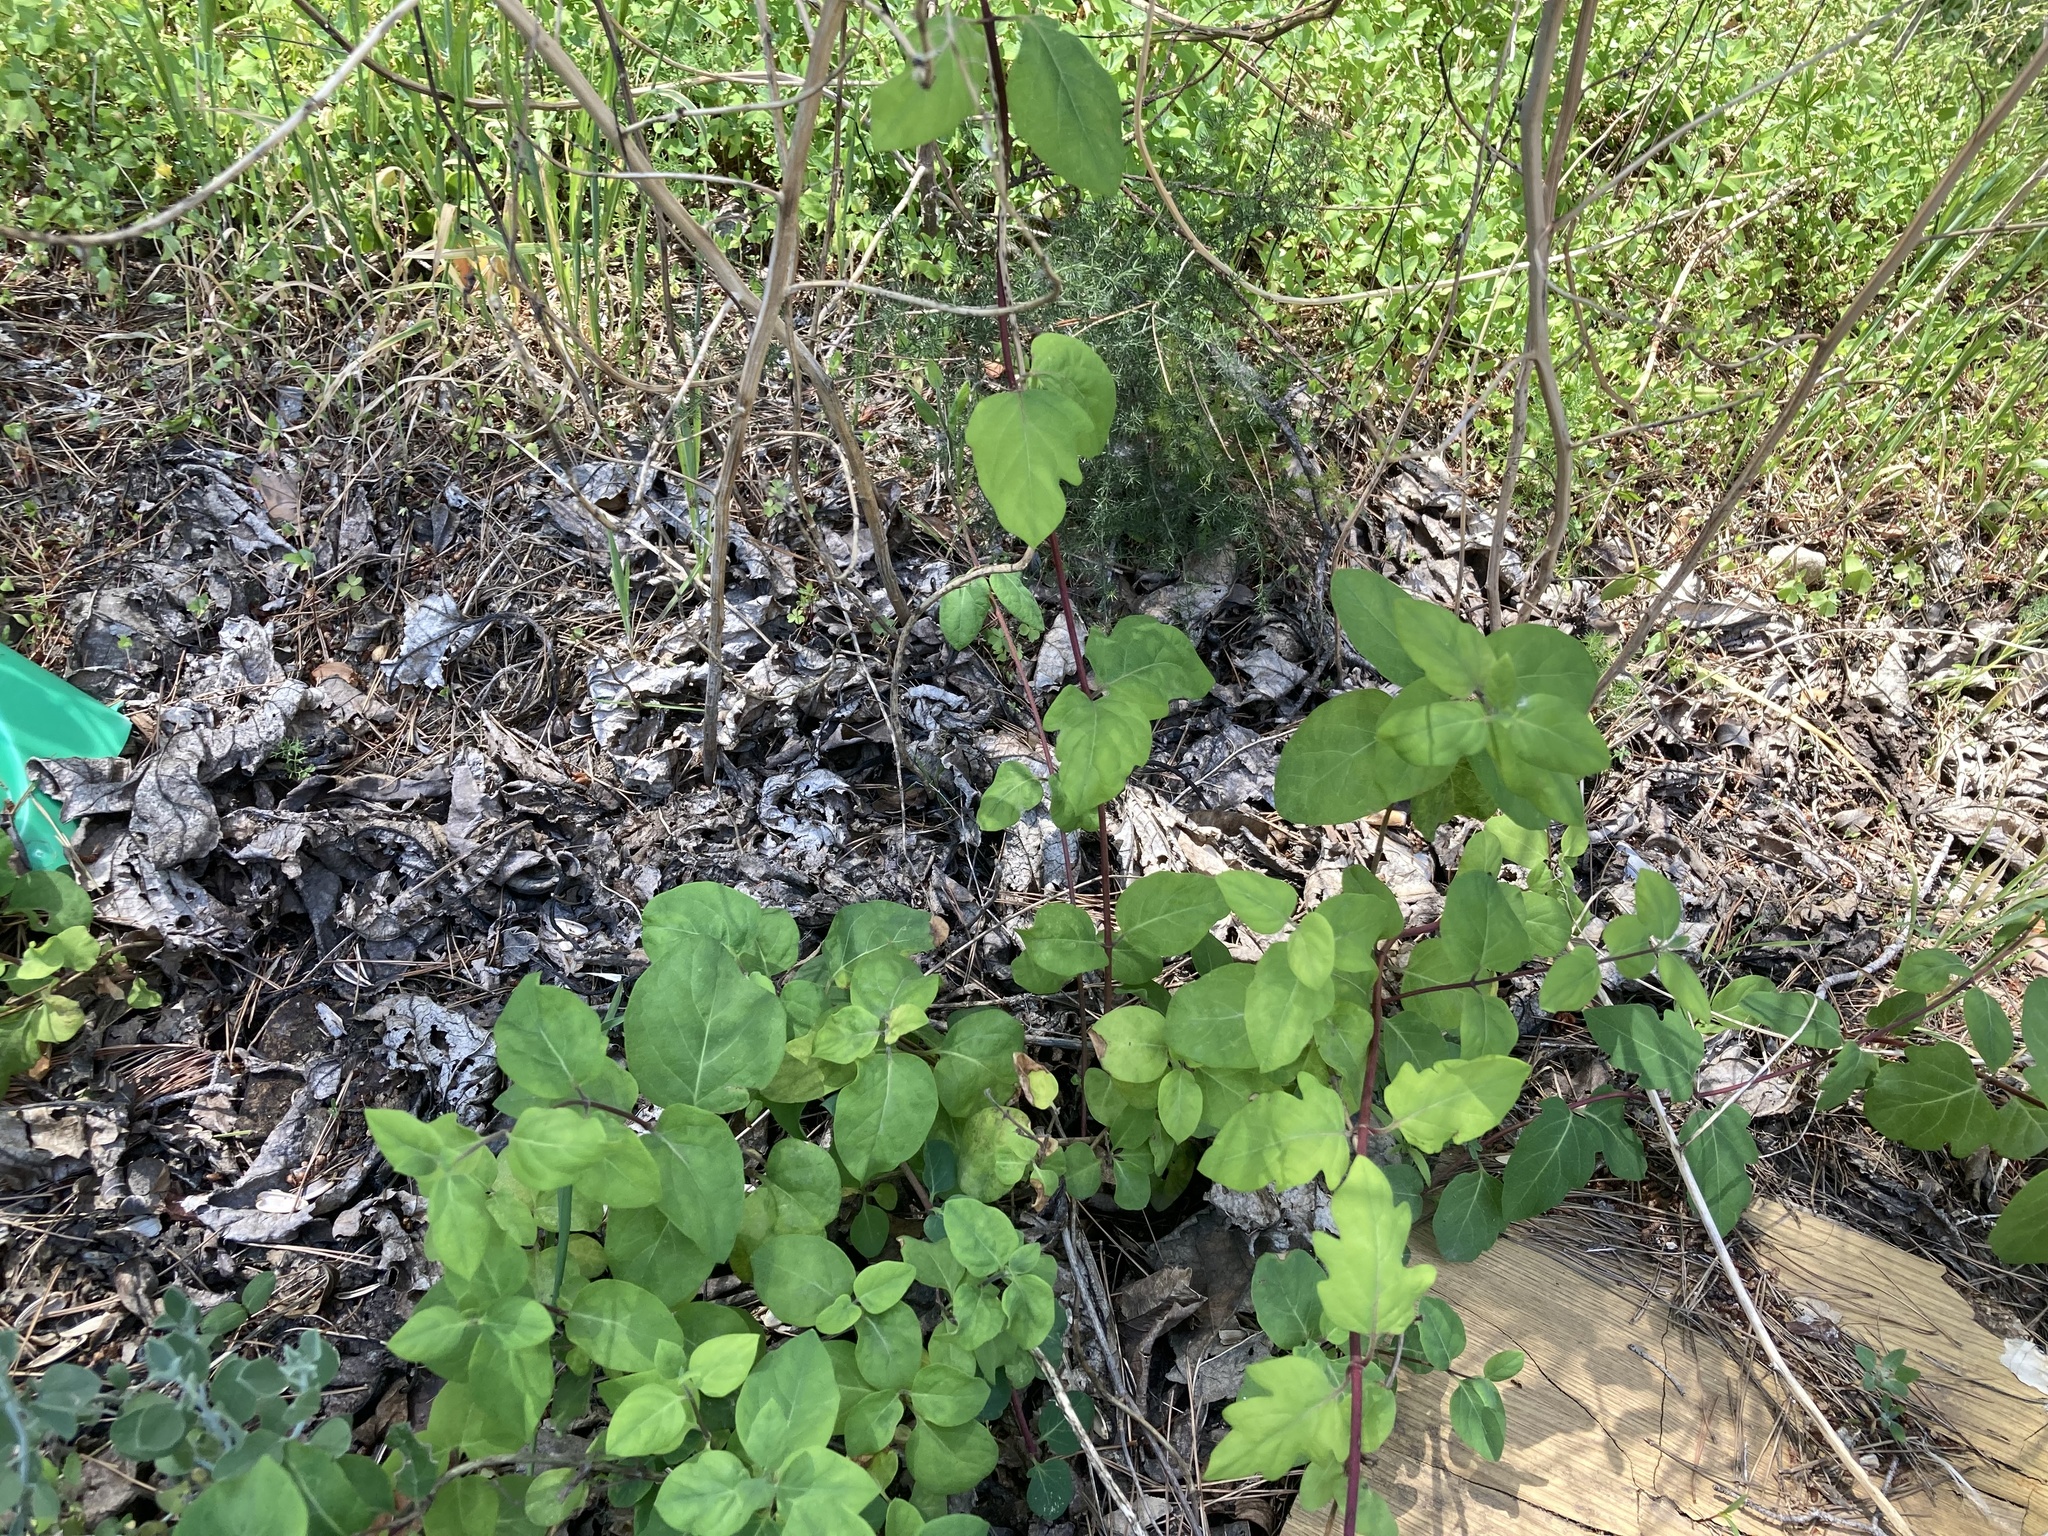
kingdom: Plantae
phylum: Tracheophyta
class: Magnoliopsida
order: Dipsacales
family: Caprifoliaceae
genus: Lonicera
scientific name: Lonicera japonica
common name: Japanese honeysuckle
